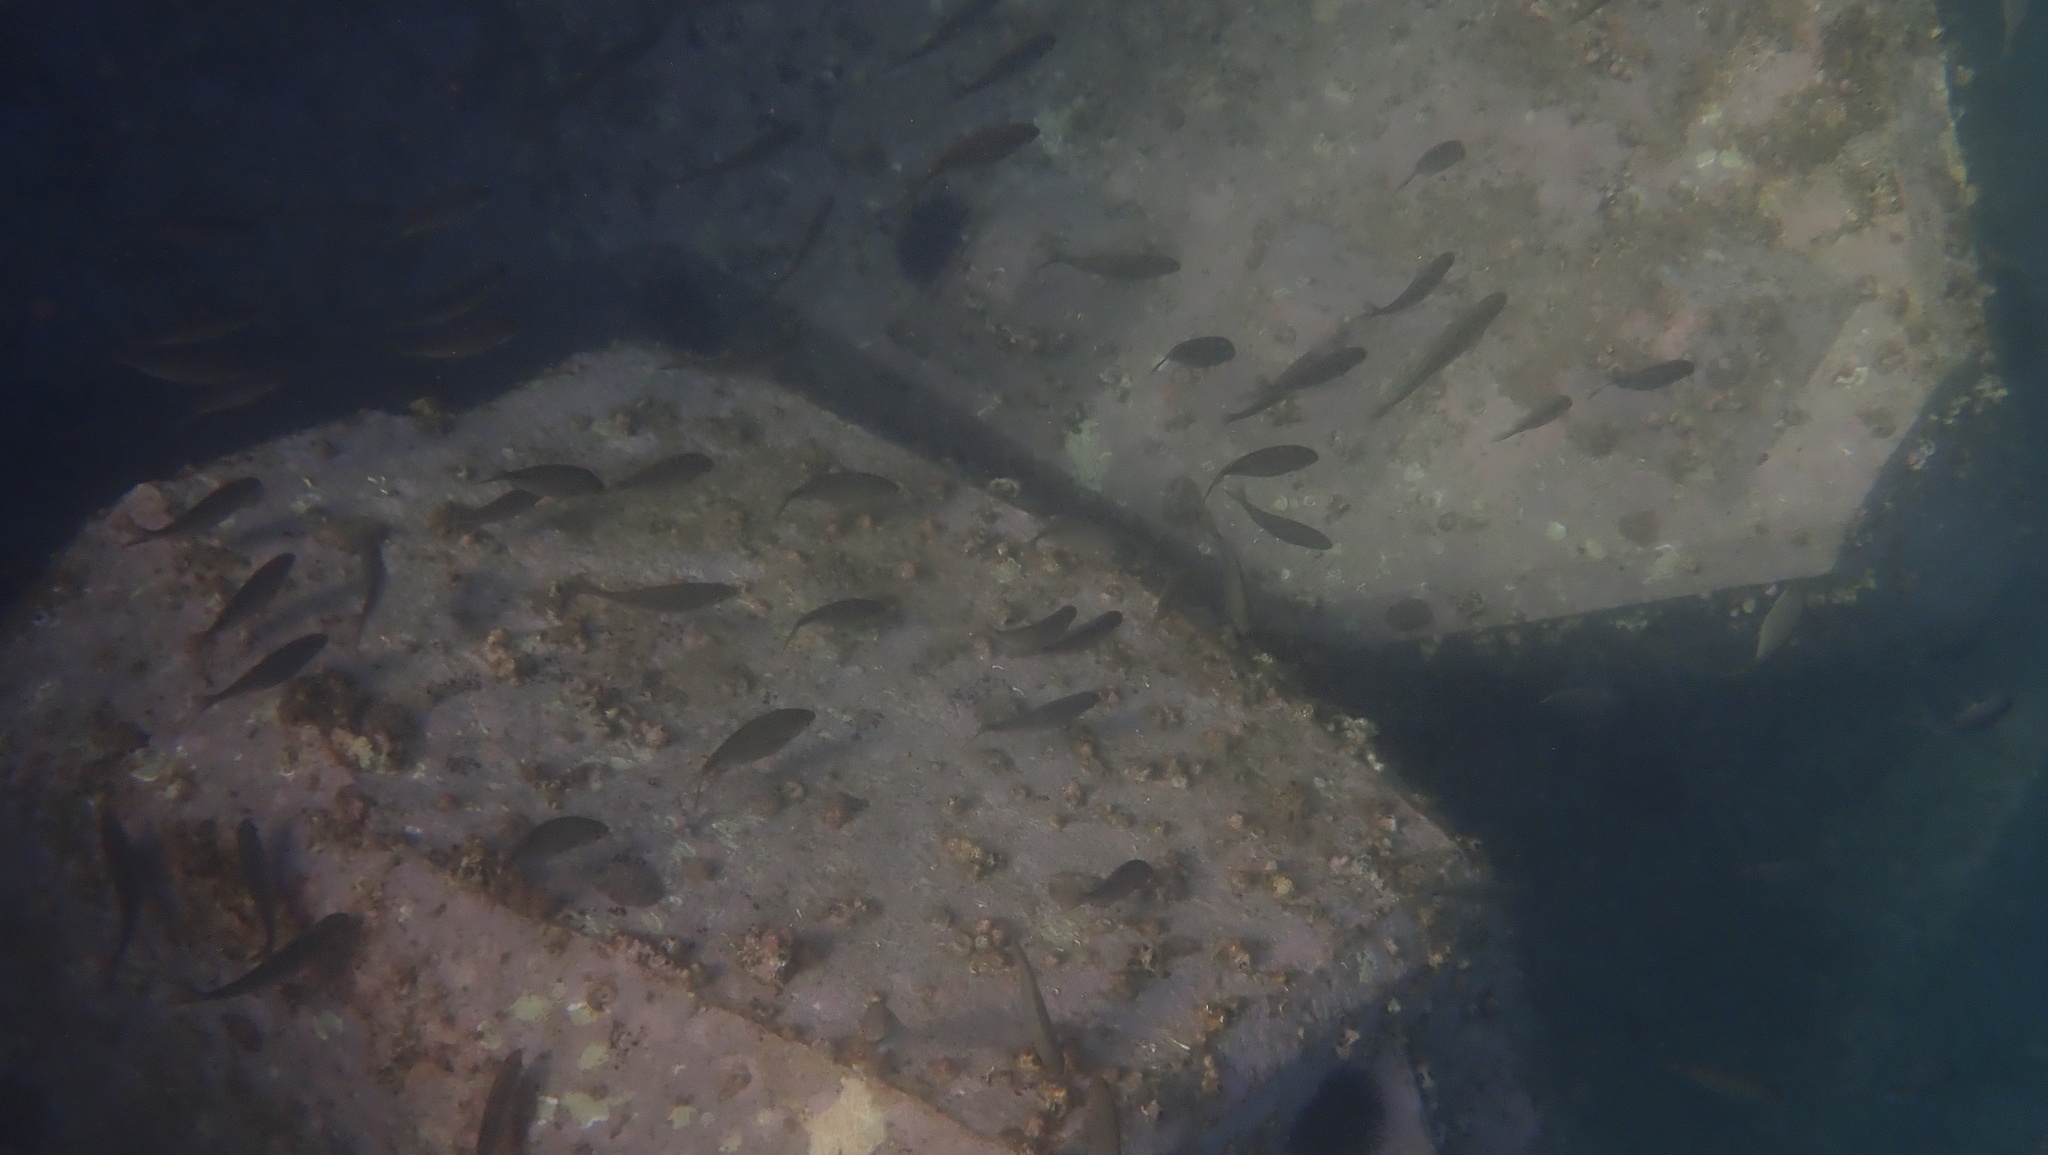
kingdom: Animalia
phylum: Chordata
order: Perciformes
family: Sparidae
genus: Sarpa
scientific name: Sarpa salpa
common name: Salema
